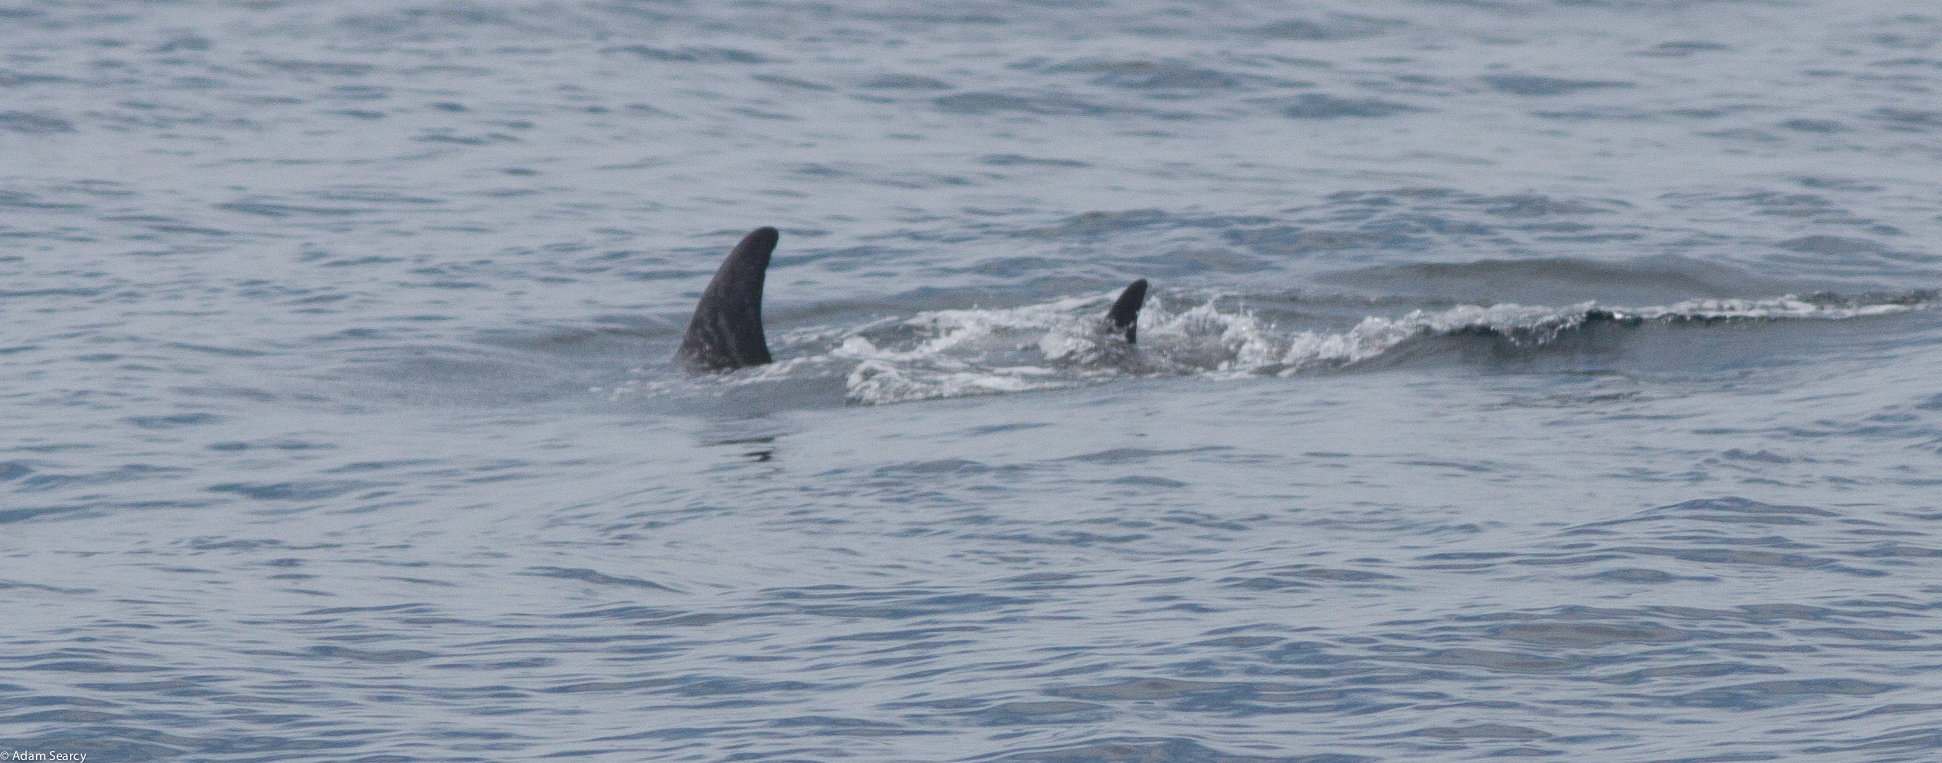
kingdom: Animalia
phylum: Chordata
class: Mammalia
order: Cetacea
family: Delphinidae
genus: Grampus
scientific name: Grampus griseus
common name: Risso's dolphin
